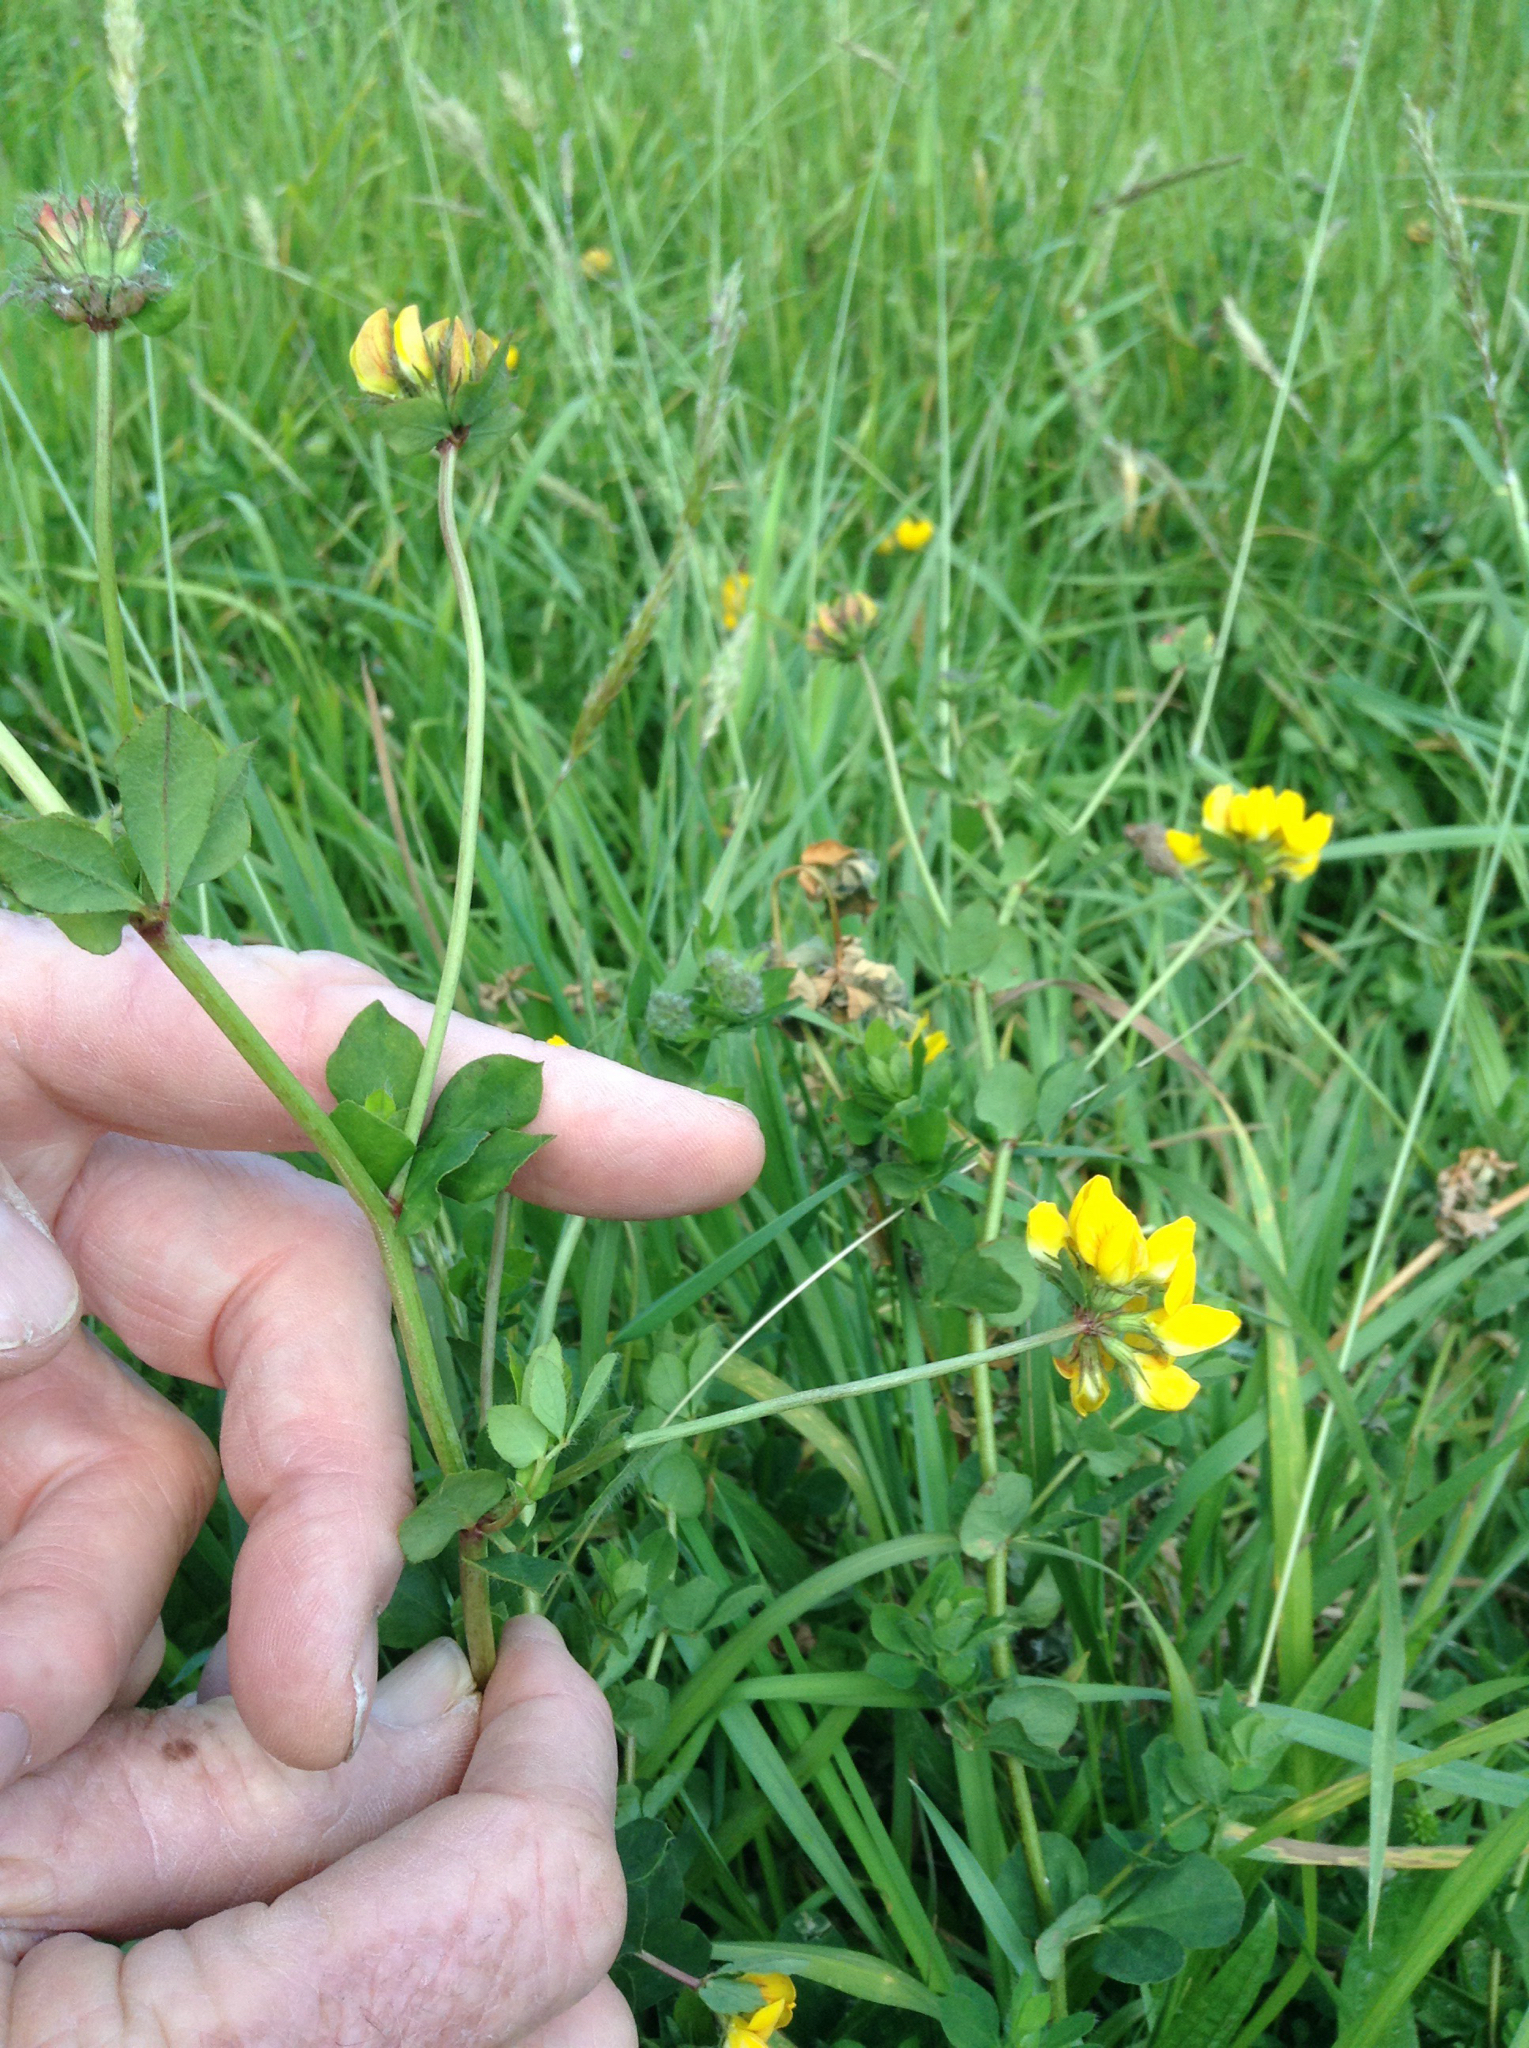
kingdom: Plantae
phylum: Tracheophyta
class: Magnoliopsida
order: Fabales
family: Fabaceae
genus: Lotus
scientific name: Lotus pedunculatus
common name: Greater birdsfoot-trefoil
